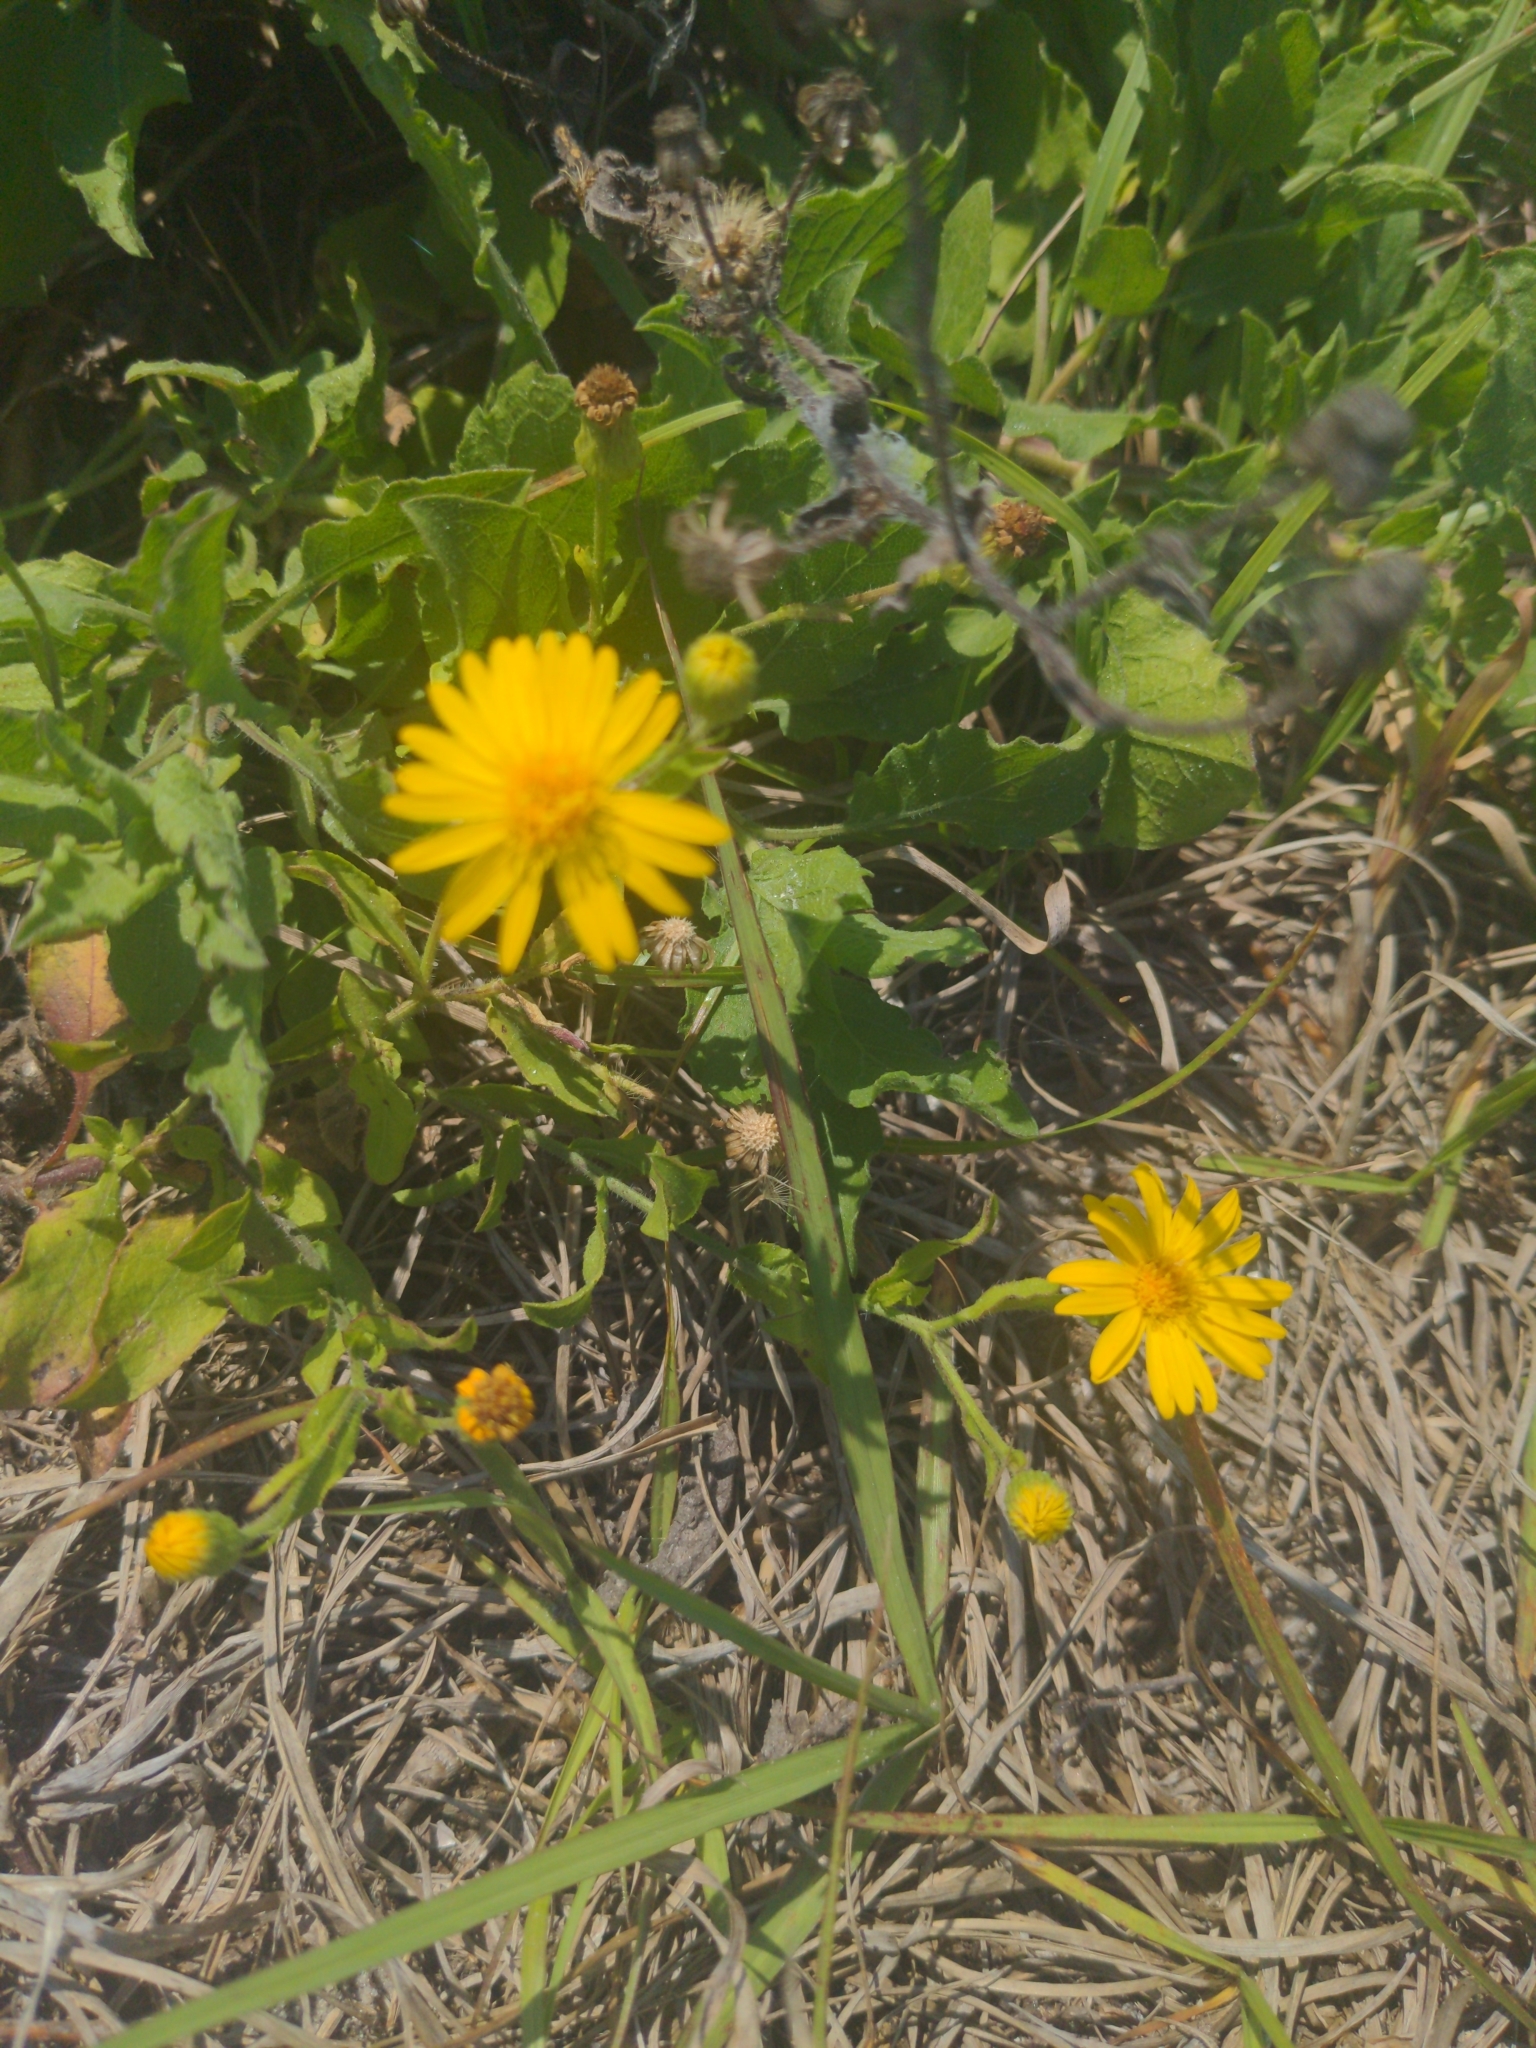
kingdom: Plantae
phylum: Tracheophyta
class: Magnoliopsida
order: Asterales
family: Asteraceae
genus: Heterotheca
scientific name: Heterotheca subaxillaris
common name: Camphorweed
